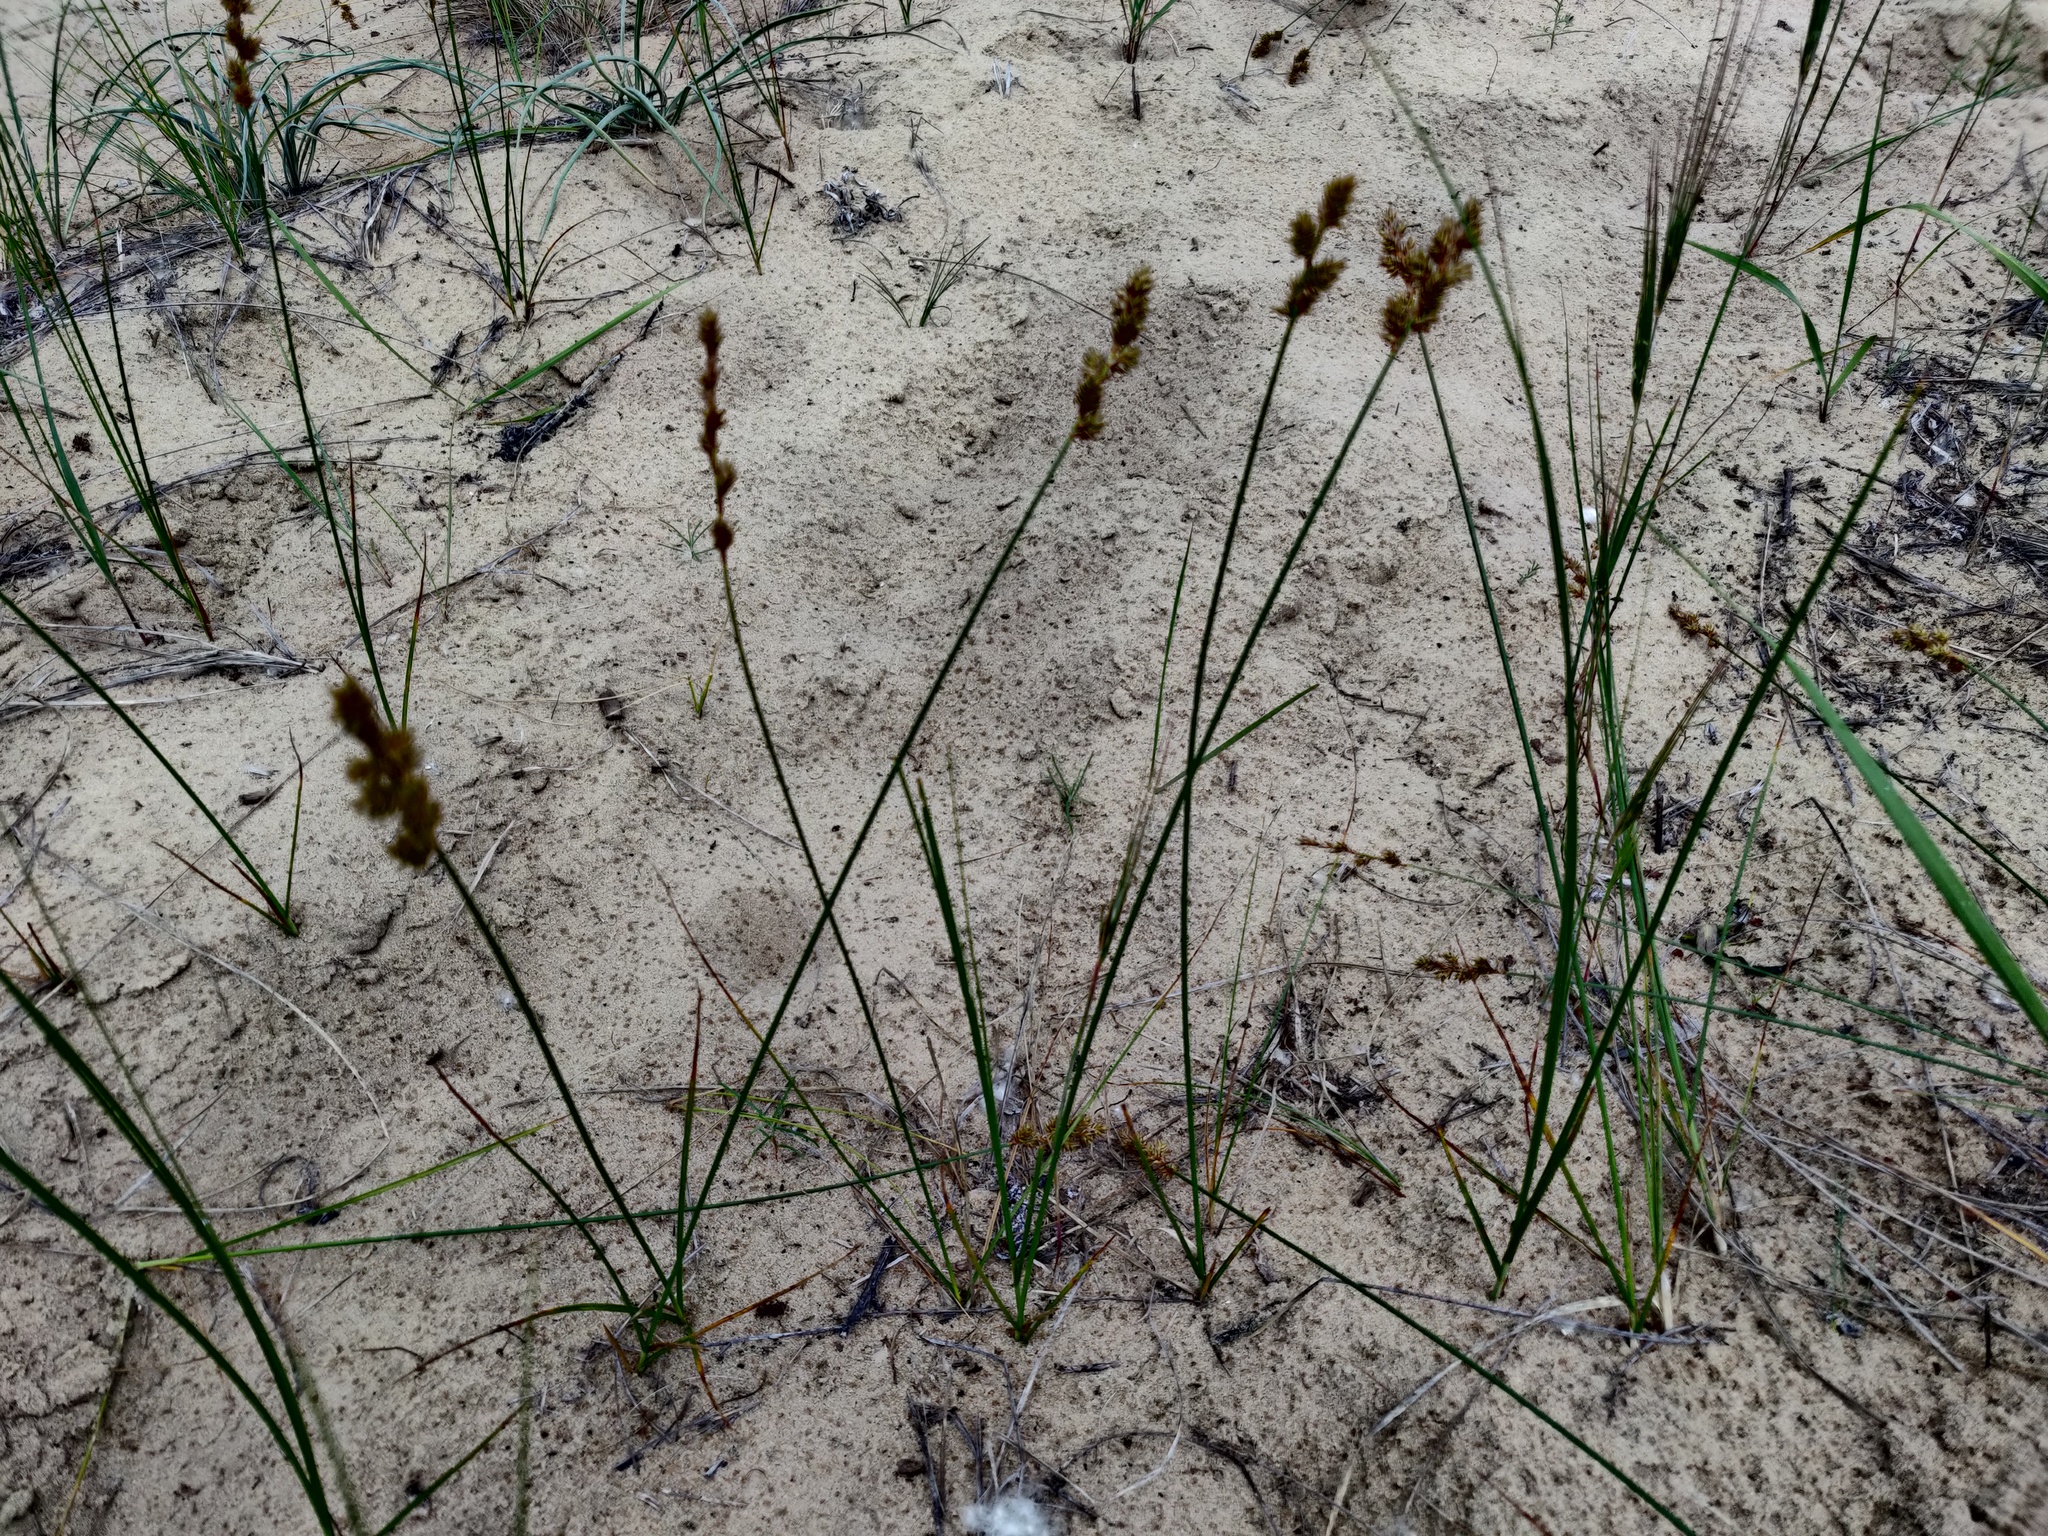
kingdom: Plantae
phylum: Tracheophyta
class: Liliopsida
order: Poales
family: Cyperaceae
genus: Carex
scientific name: Carex colchica
